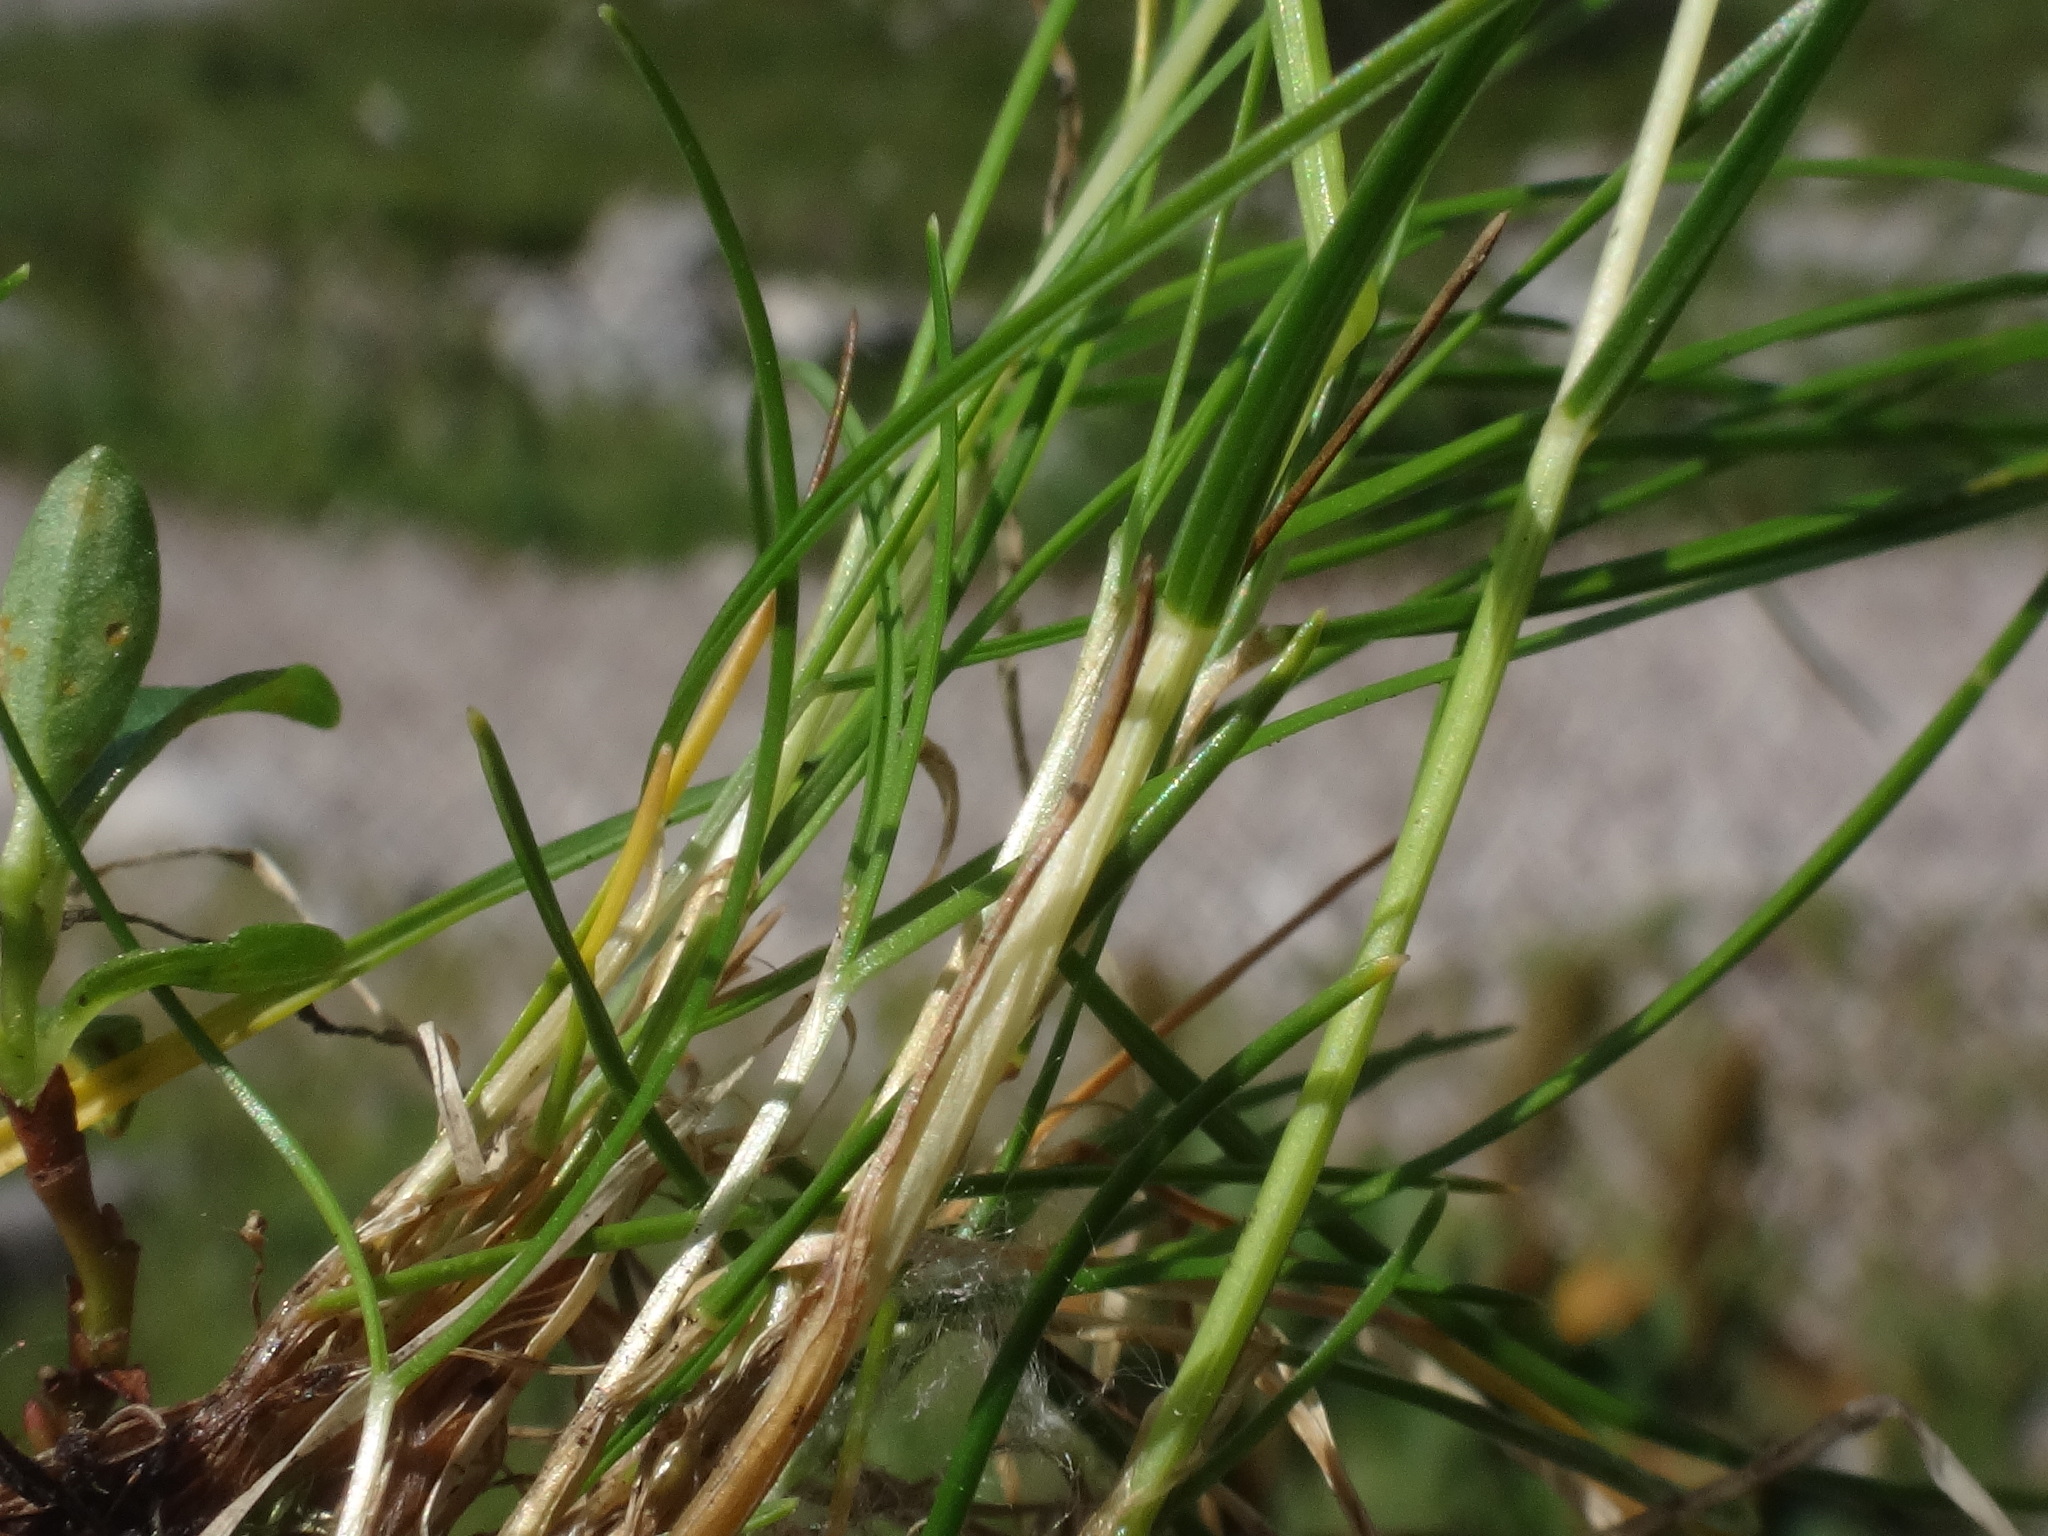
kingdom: Plantae
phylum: Tracheophyta
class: Liliopsida
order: Poales
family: Poaceae
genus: Festuca
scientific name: Festuca rupicaprina
